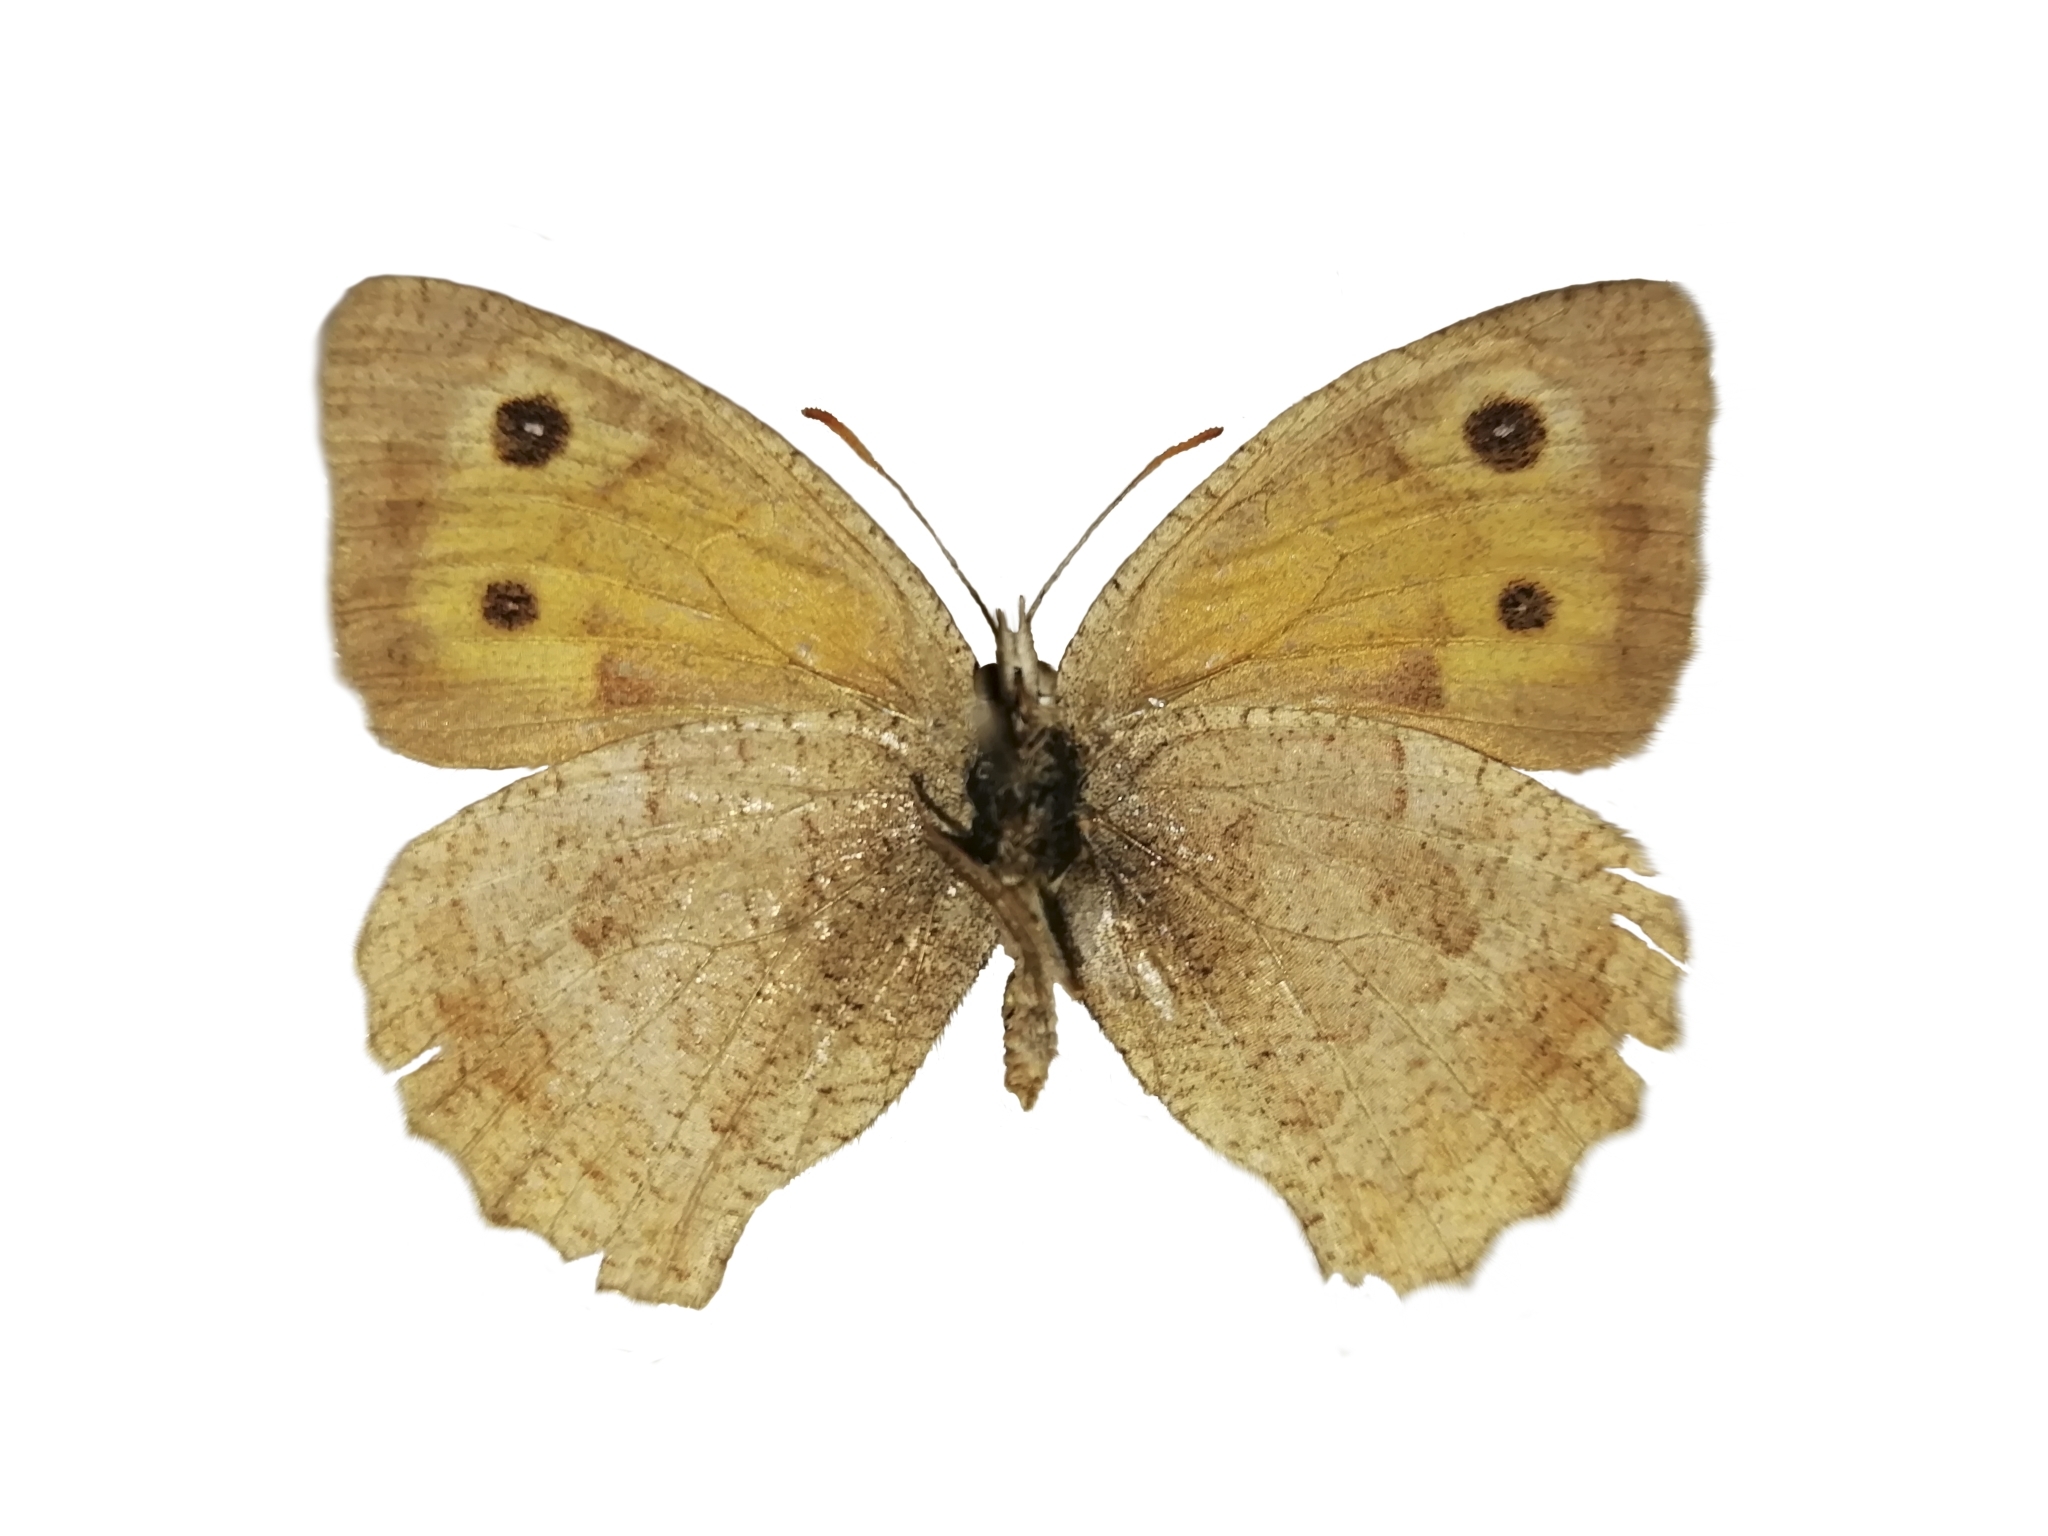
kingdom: Animalia
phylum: Arthropoda
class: Insecta
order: Lepidoptera
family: Nymphalidae
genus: Hyponephele
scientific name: Hyponephele lycaon
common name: Dusky meadow brown
